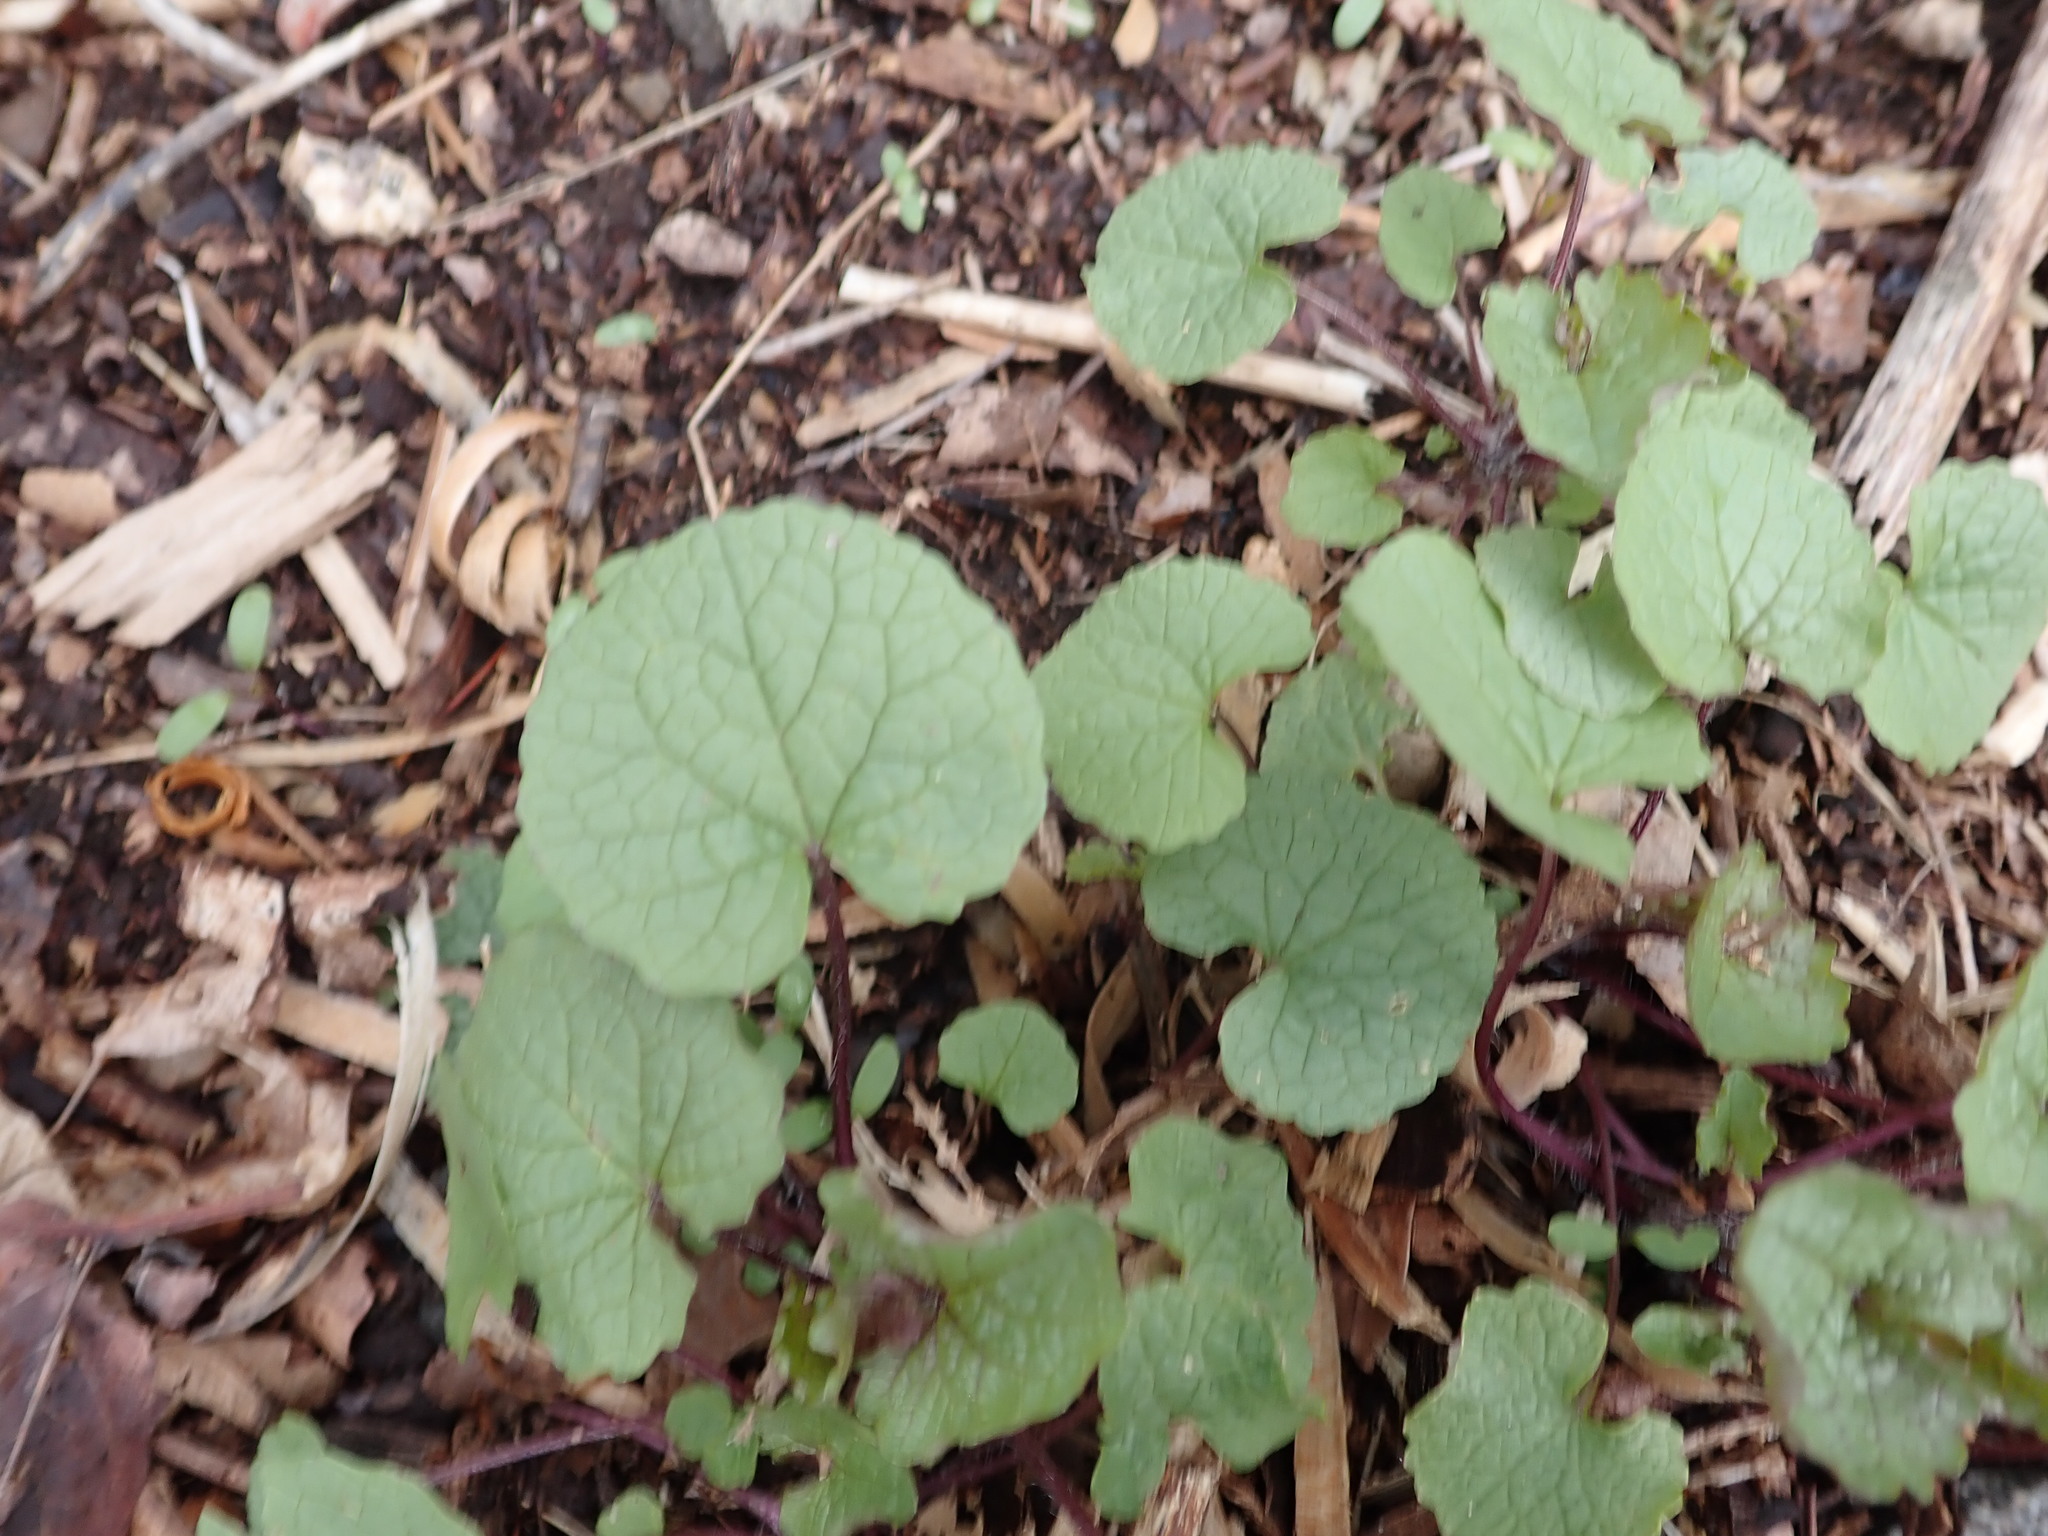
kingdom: Plantae
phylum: Tracheophyta
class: Magnoliopsida
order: Brassicales
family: Brassicaceae
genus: Alliaria
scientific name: Alliaria petiolata
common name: Garlic mustard
